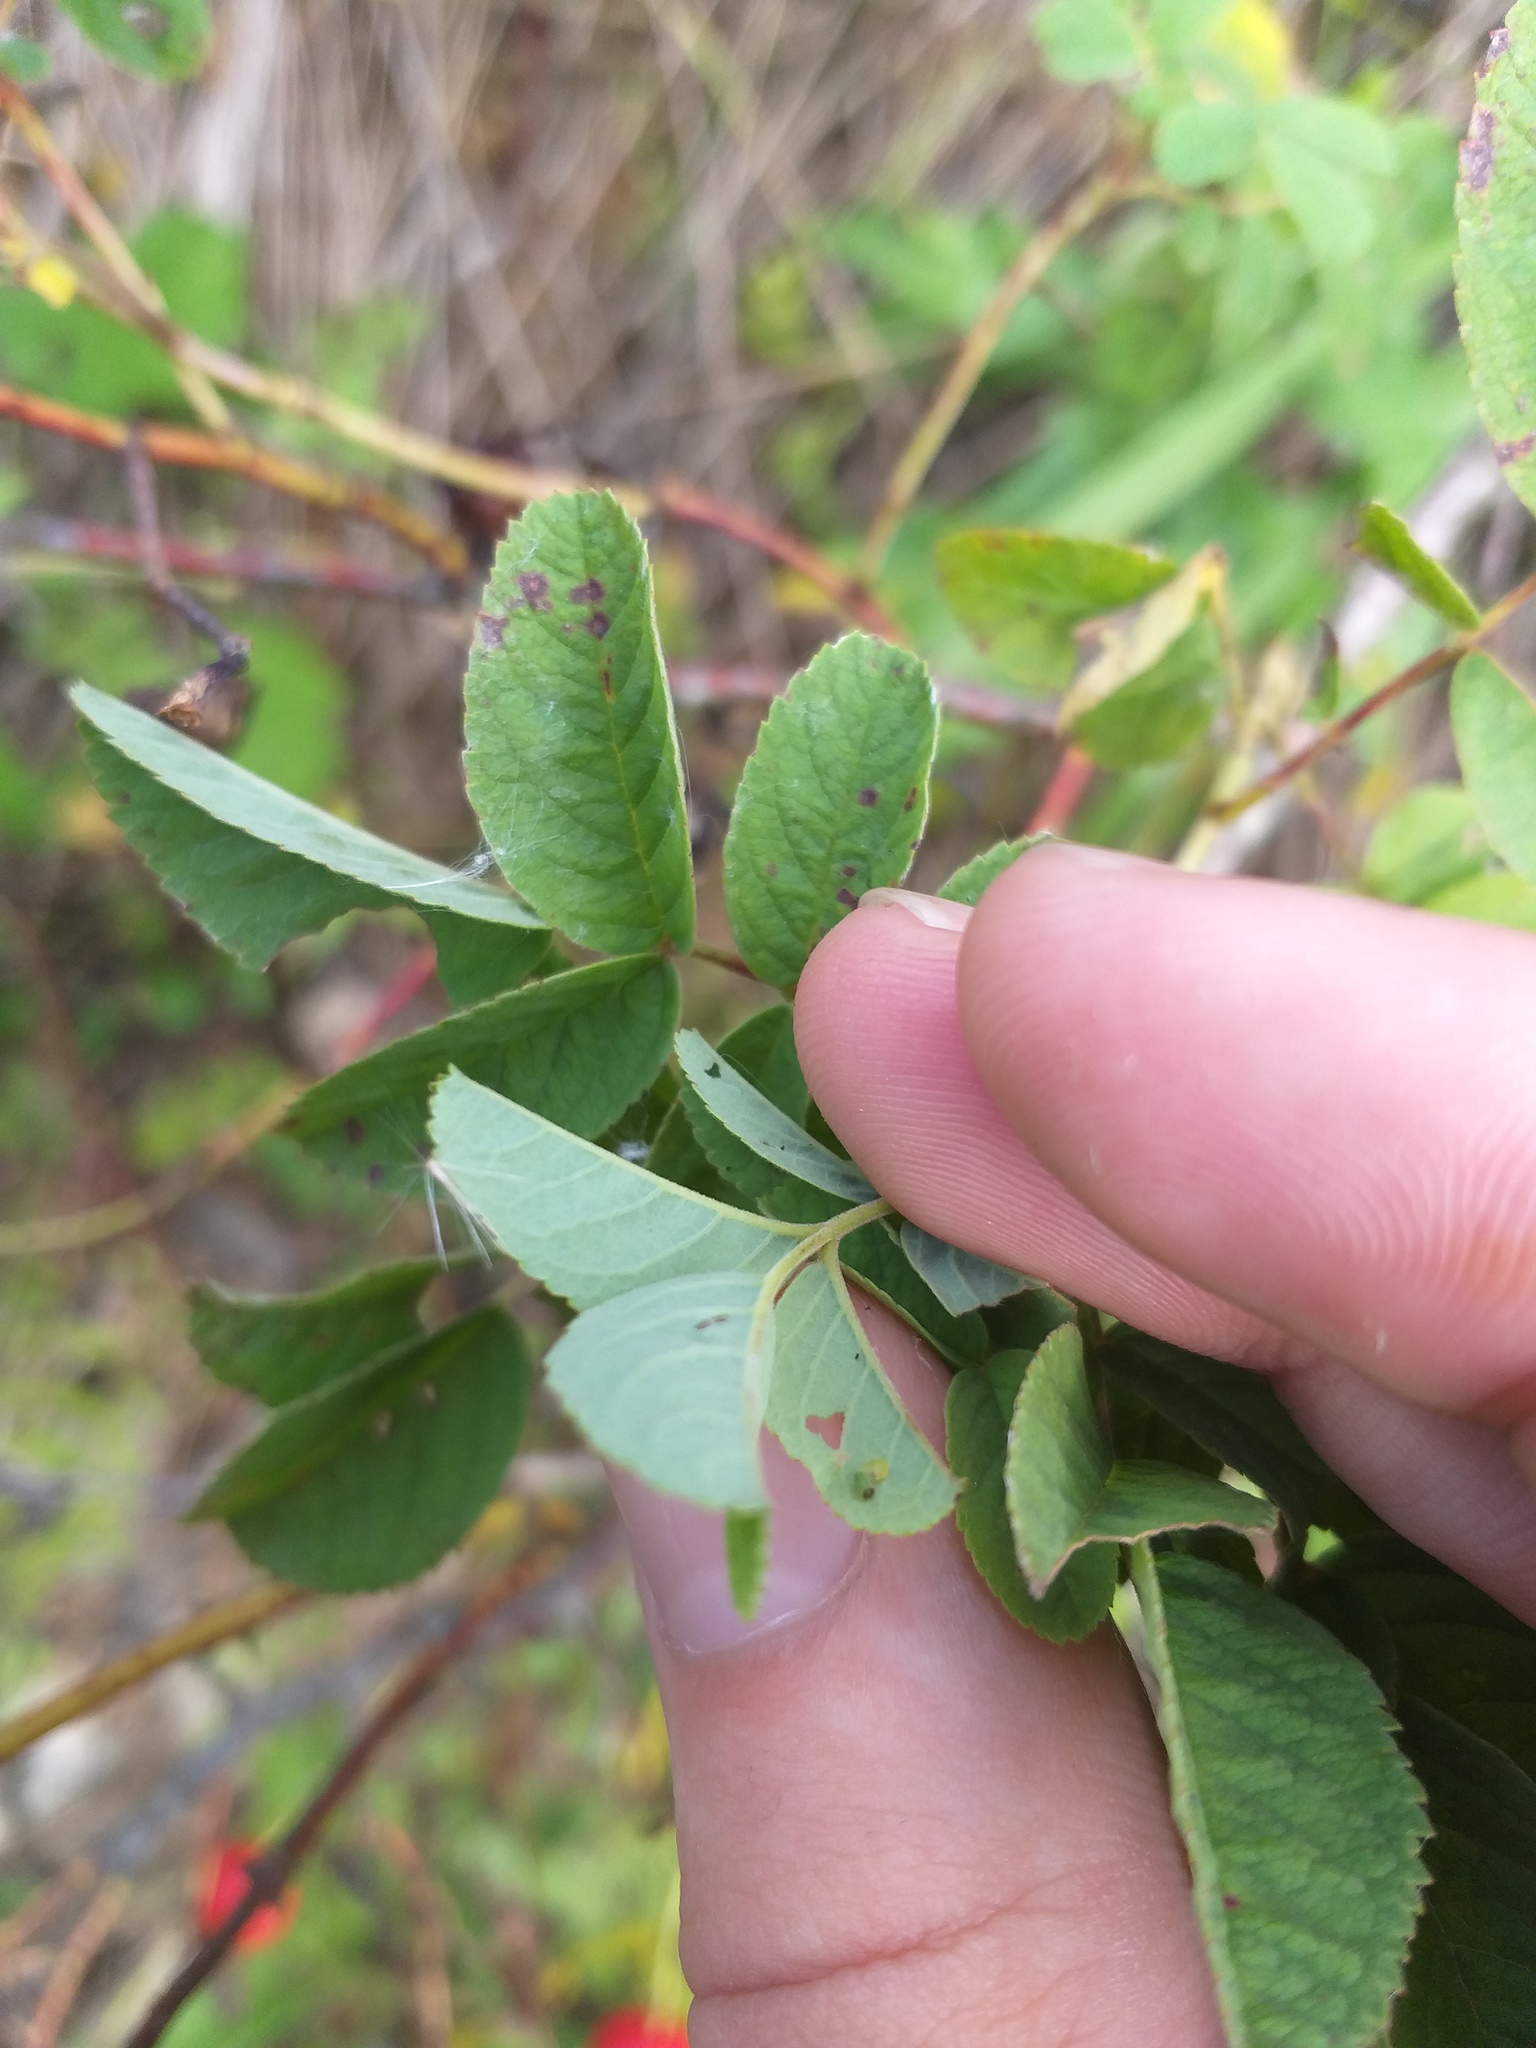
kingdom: Plantae
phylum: Tracheophyta
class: Magnoliopsida
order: Rosales
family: Rosaceae
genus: Rosa
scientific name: Rosa majalis
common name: Cinnamon rose
